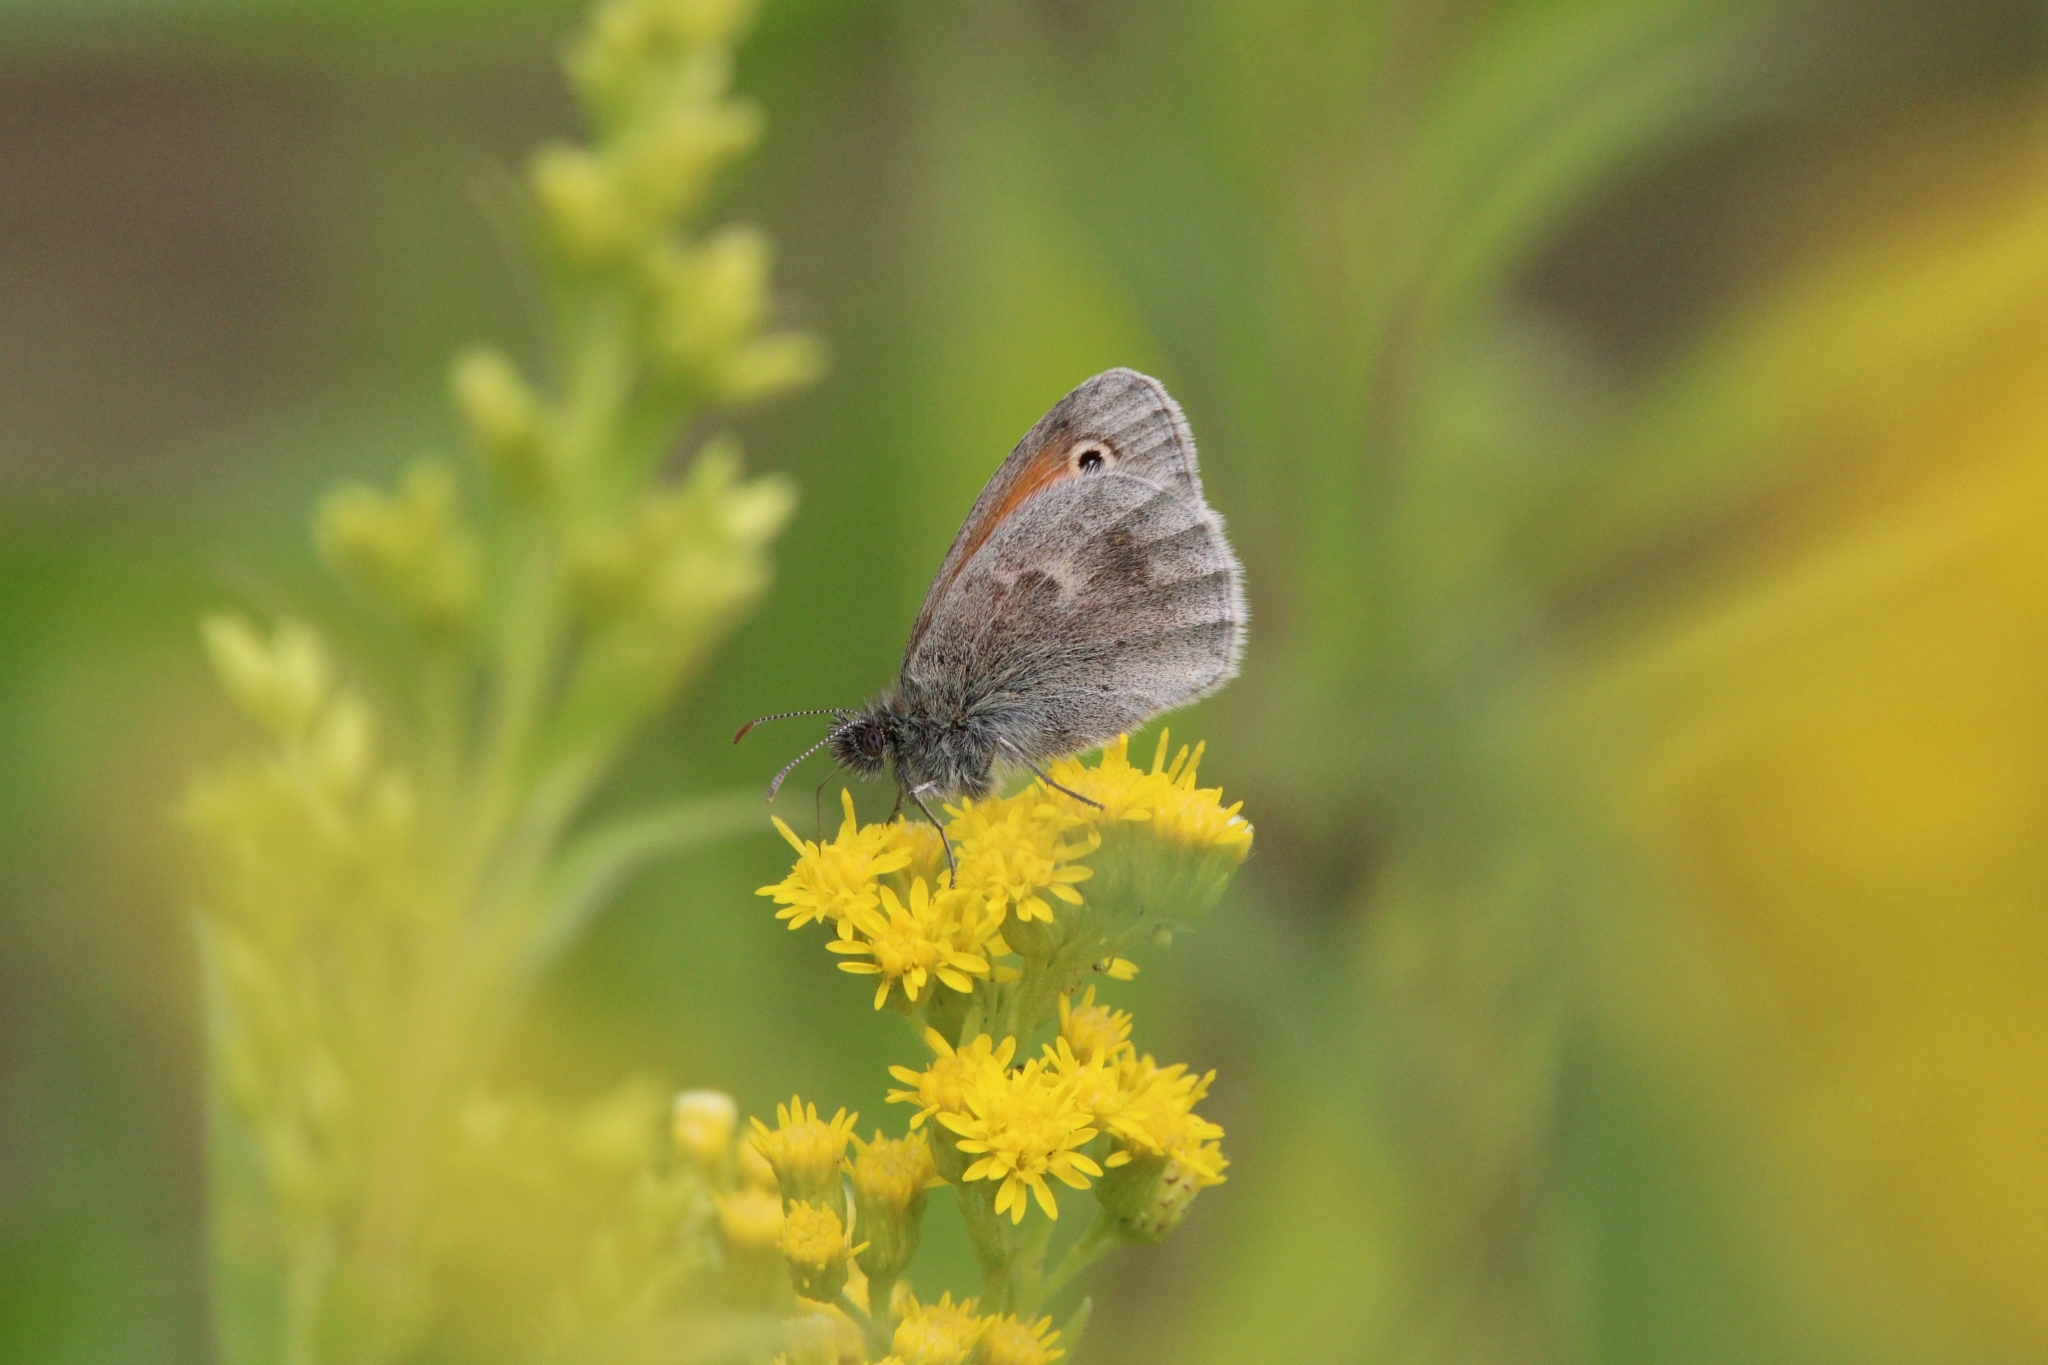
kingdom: Animalia
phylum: Arthropoda
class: Insecta
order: Lepidoptera
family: Nymphalidae
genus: Coenonympha
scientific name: Coenonympha pamphilus
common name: Small heath
